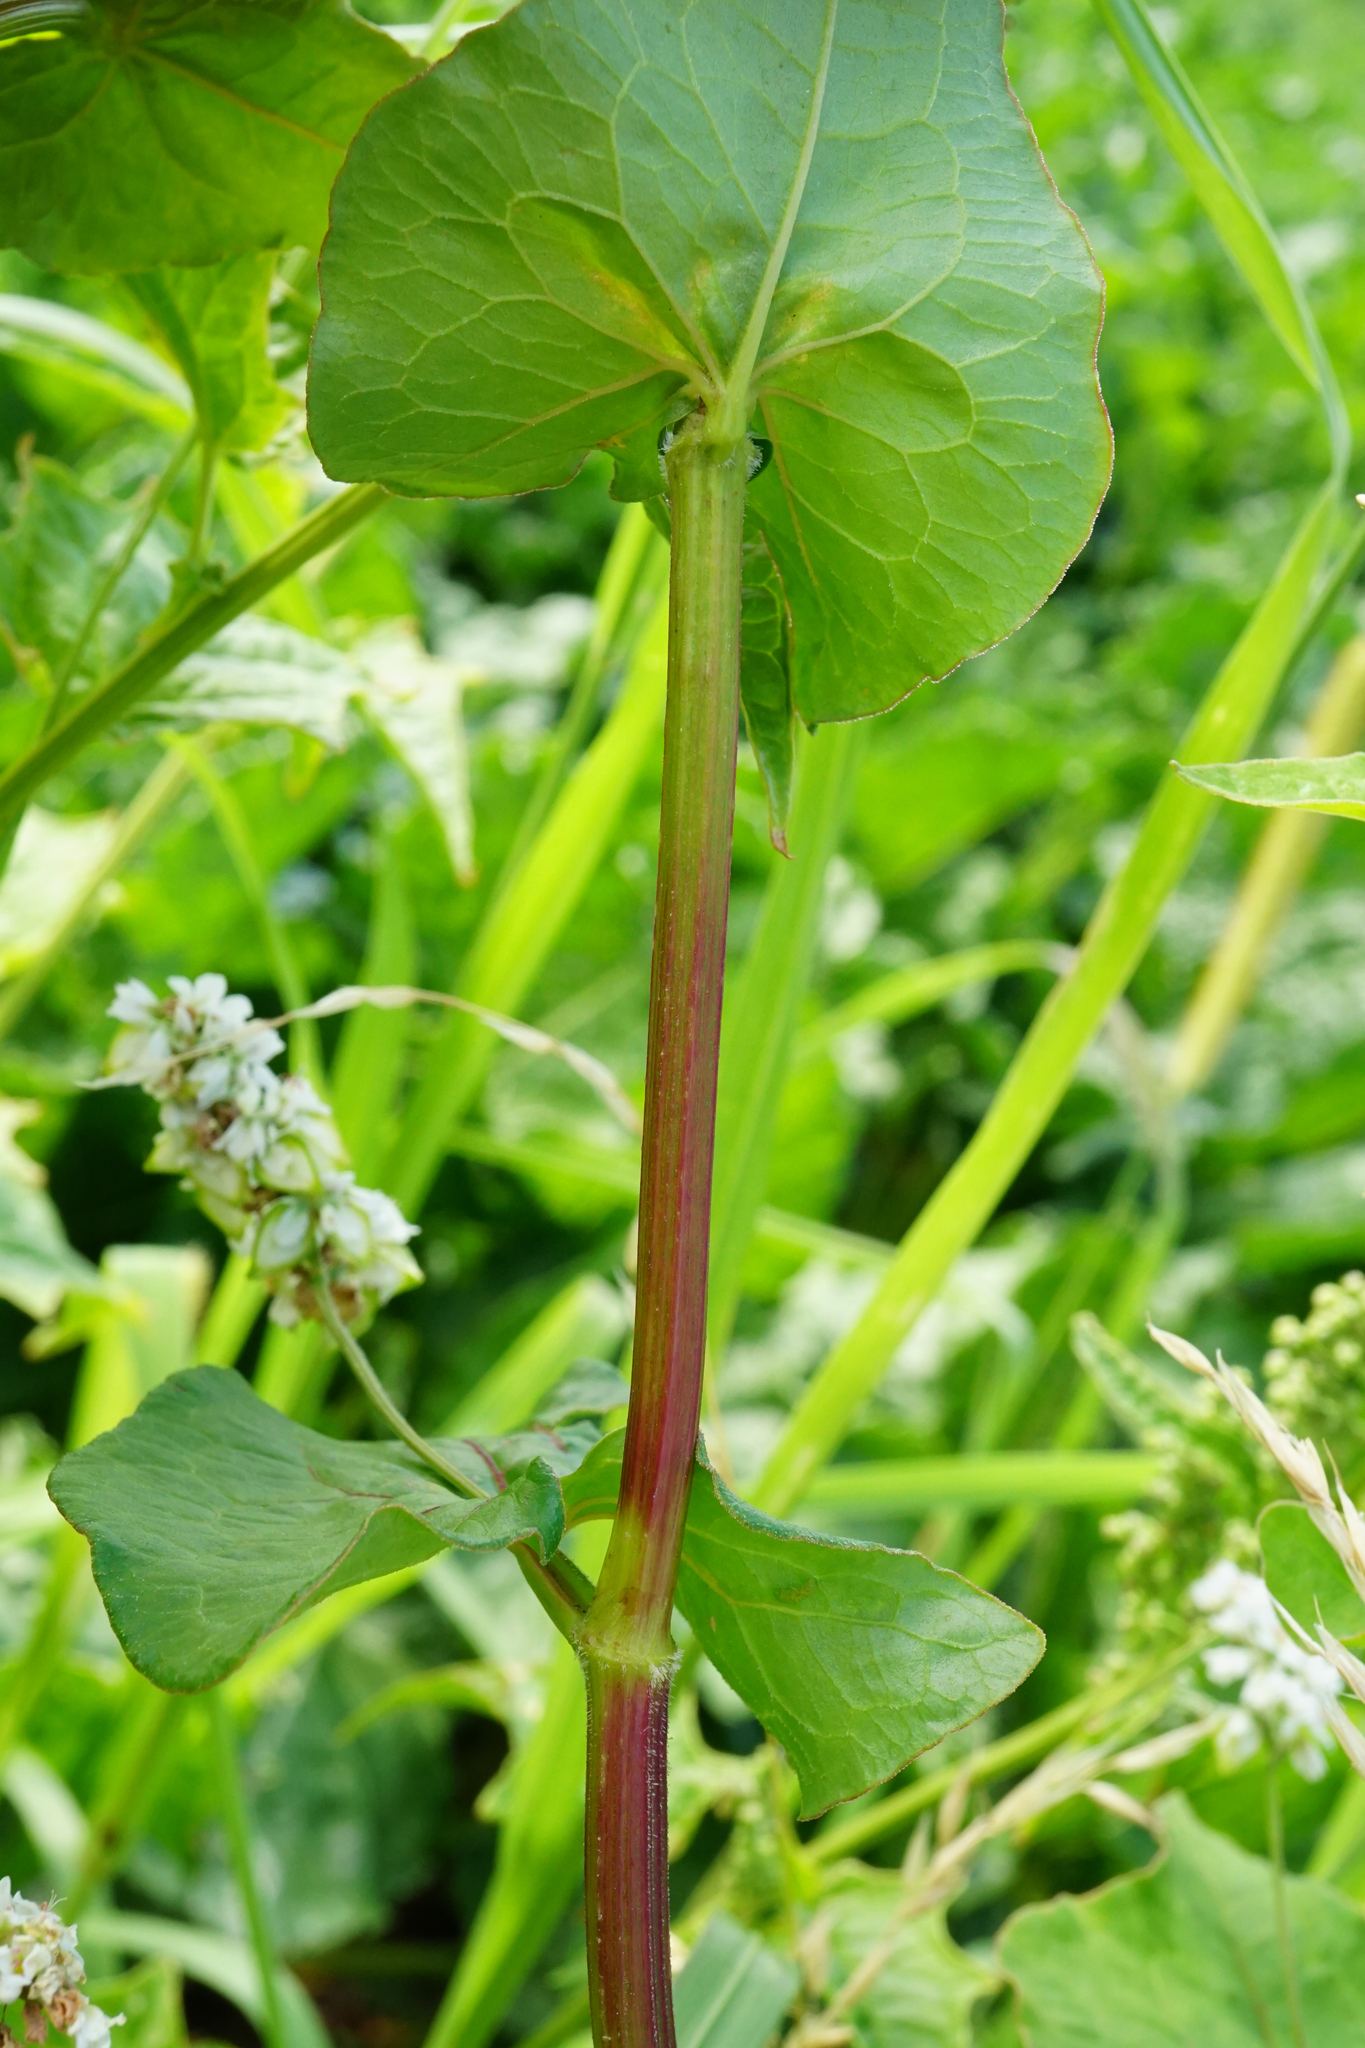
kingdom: Plantae
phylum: Tracheophyta
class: Magnoliopsida
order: Caryophyllales
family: Polygonaceae
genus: Fagopyrum
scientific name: Fagopyrum esculentum
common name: Buckwheat
